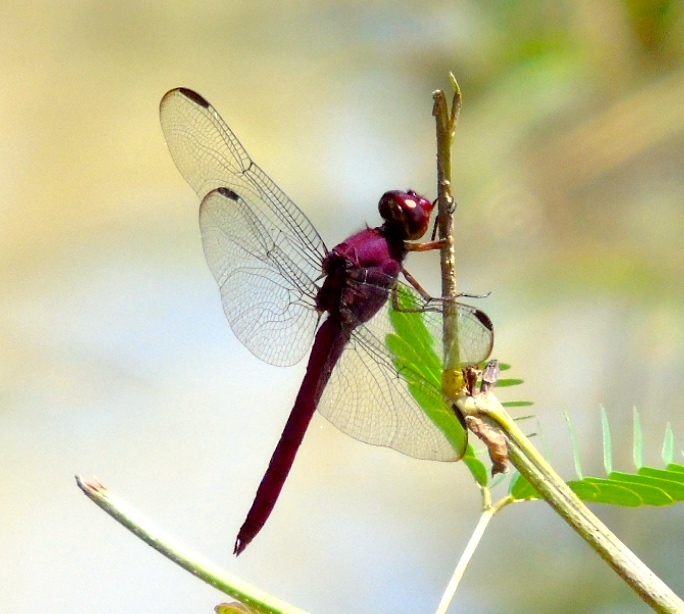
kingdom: Animalia
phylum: Arthropoda
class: Insecta
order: Odonata
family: Libellulidae
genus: Orthemis
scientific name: Orthemis discolor
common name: Carmine skimmer
